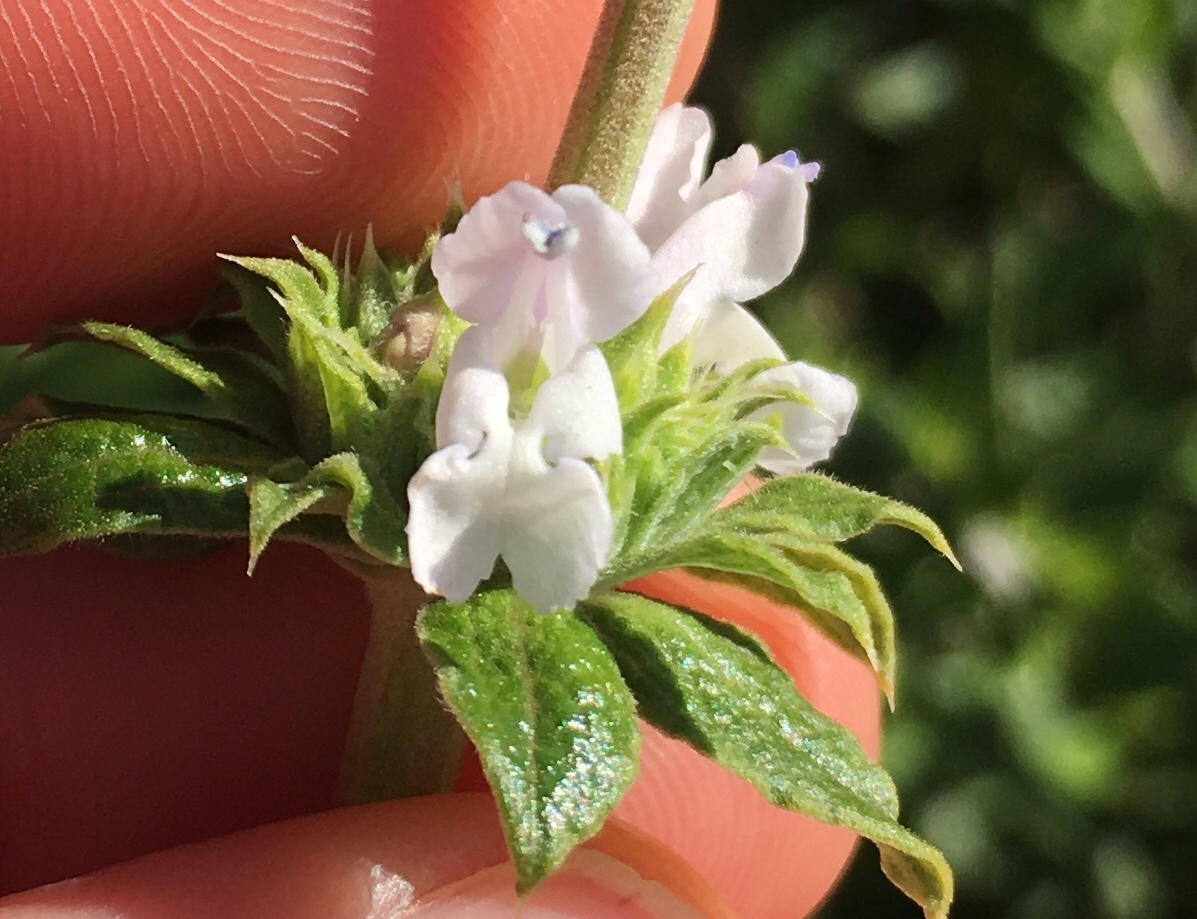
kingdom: Plantae
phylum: Tracheophyta
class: Magnoliopsida
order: Lamiales
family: Lamiaceae
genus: Salvia
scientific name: Salvia mellifera
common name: Black sage
